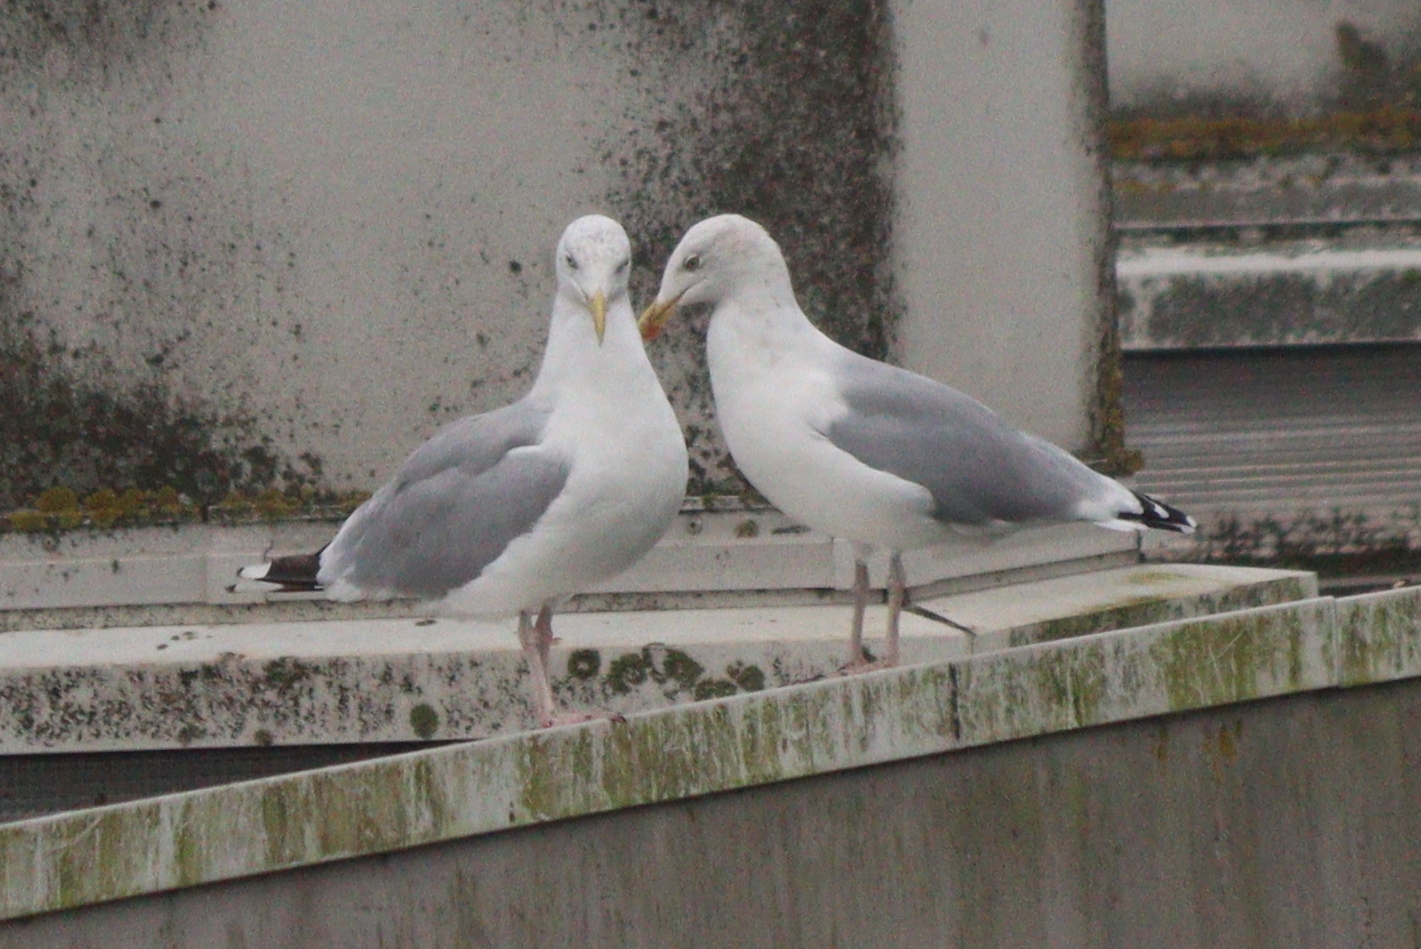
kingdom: Animalia
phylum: Chordata
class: Aves
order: Charadriiformes
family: Laridae
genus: Larus
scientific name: Larus argentatus
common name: Herring gull
